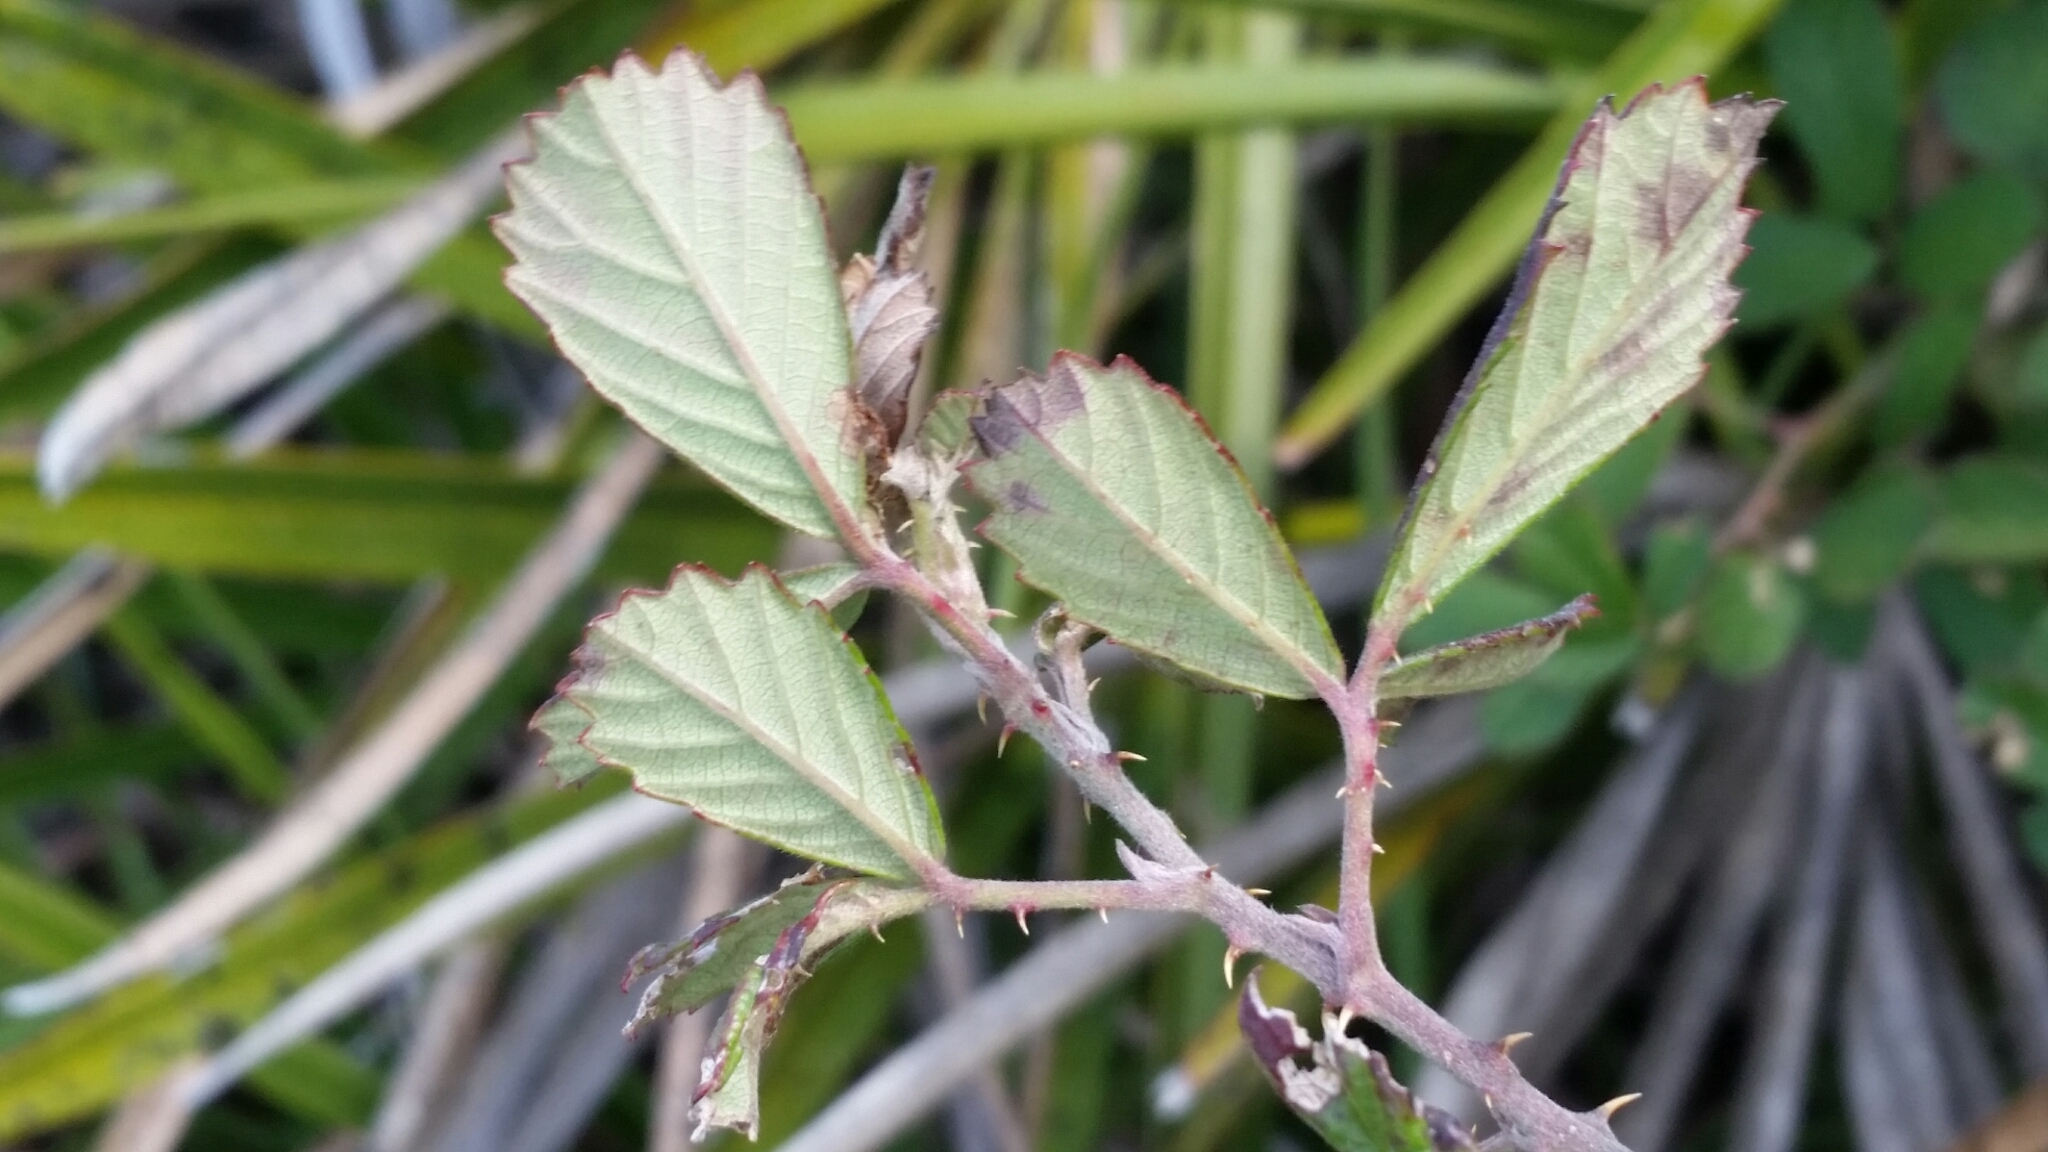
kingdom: Plantae
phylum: Tracheophyta
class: Magnoliopsida
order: Rosales
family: Rosaceae
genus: Rubus
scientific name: Rubus cuneifolius
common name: American bramble
